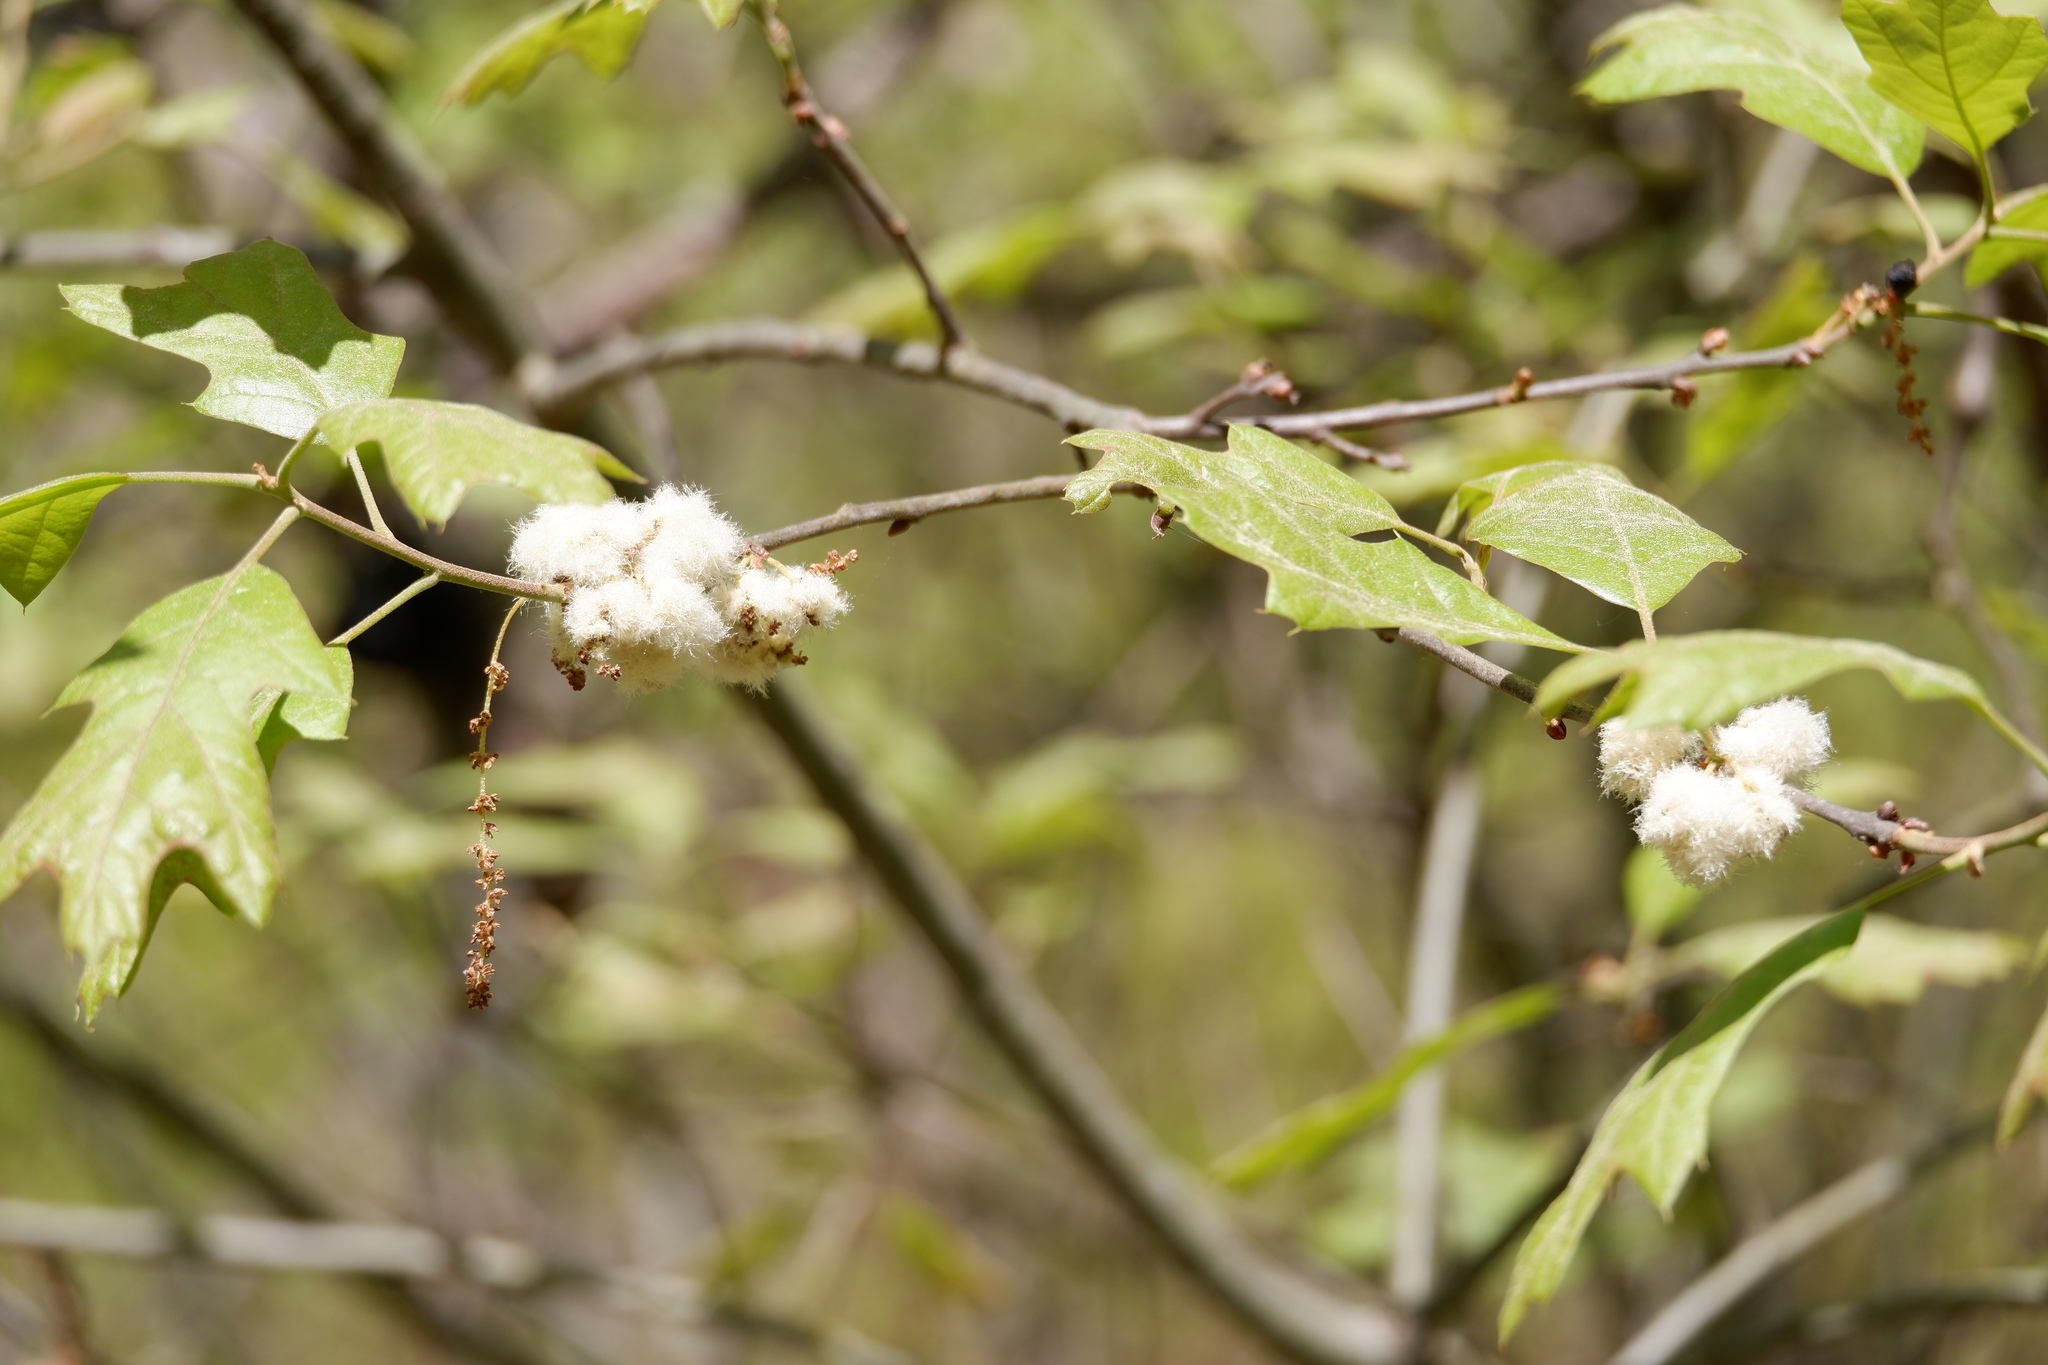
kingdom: Animalia
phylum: Arthropoda
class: Insecta
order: Hymenoptera
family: Cynipidae
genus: Callirhytis
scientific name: Callirhytis
